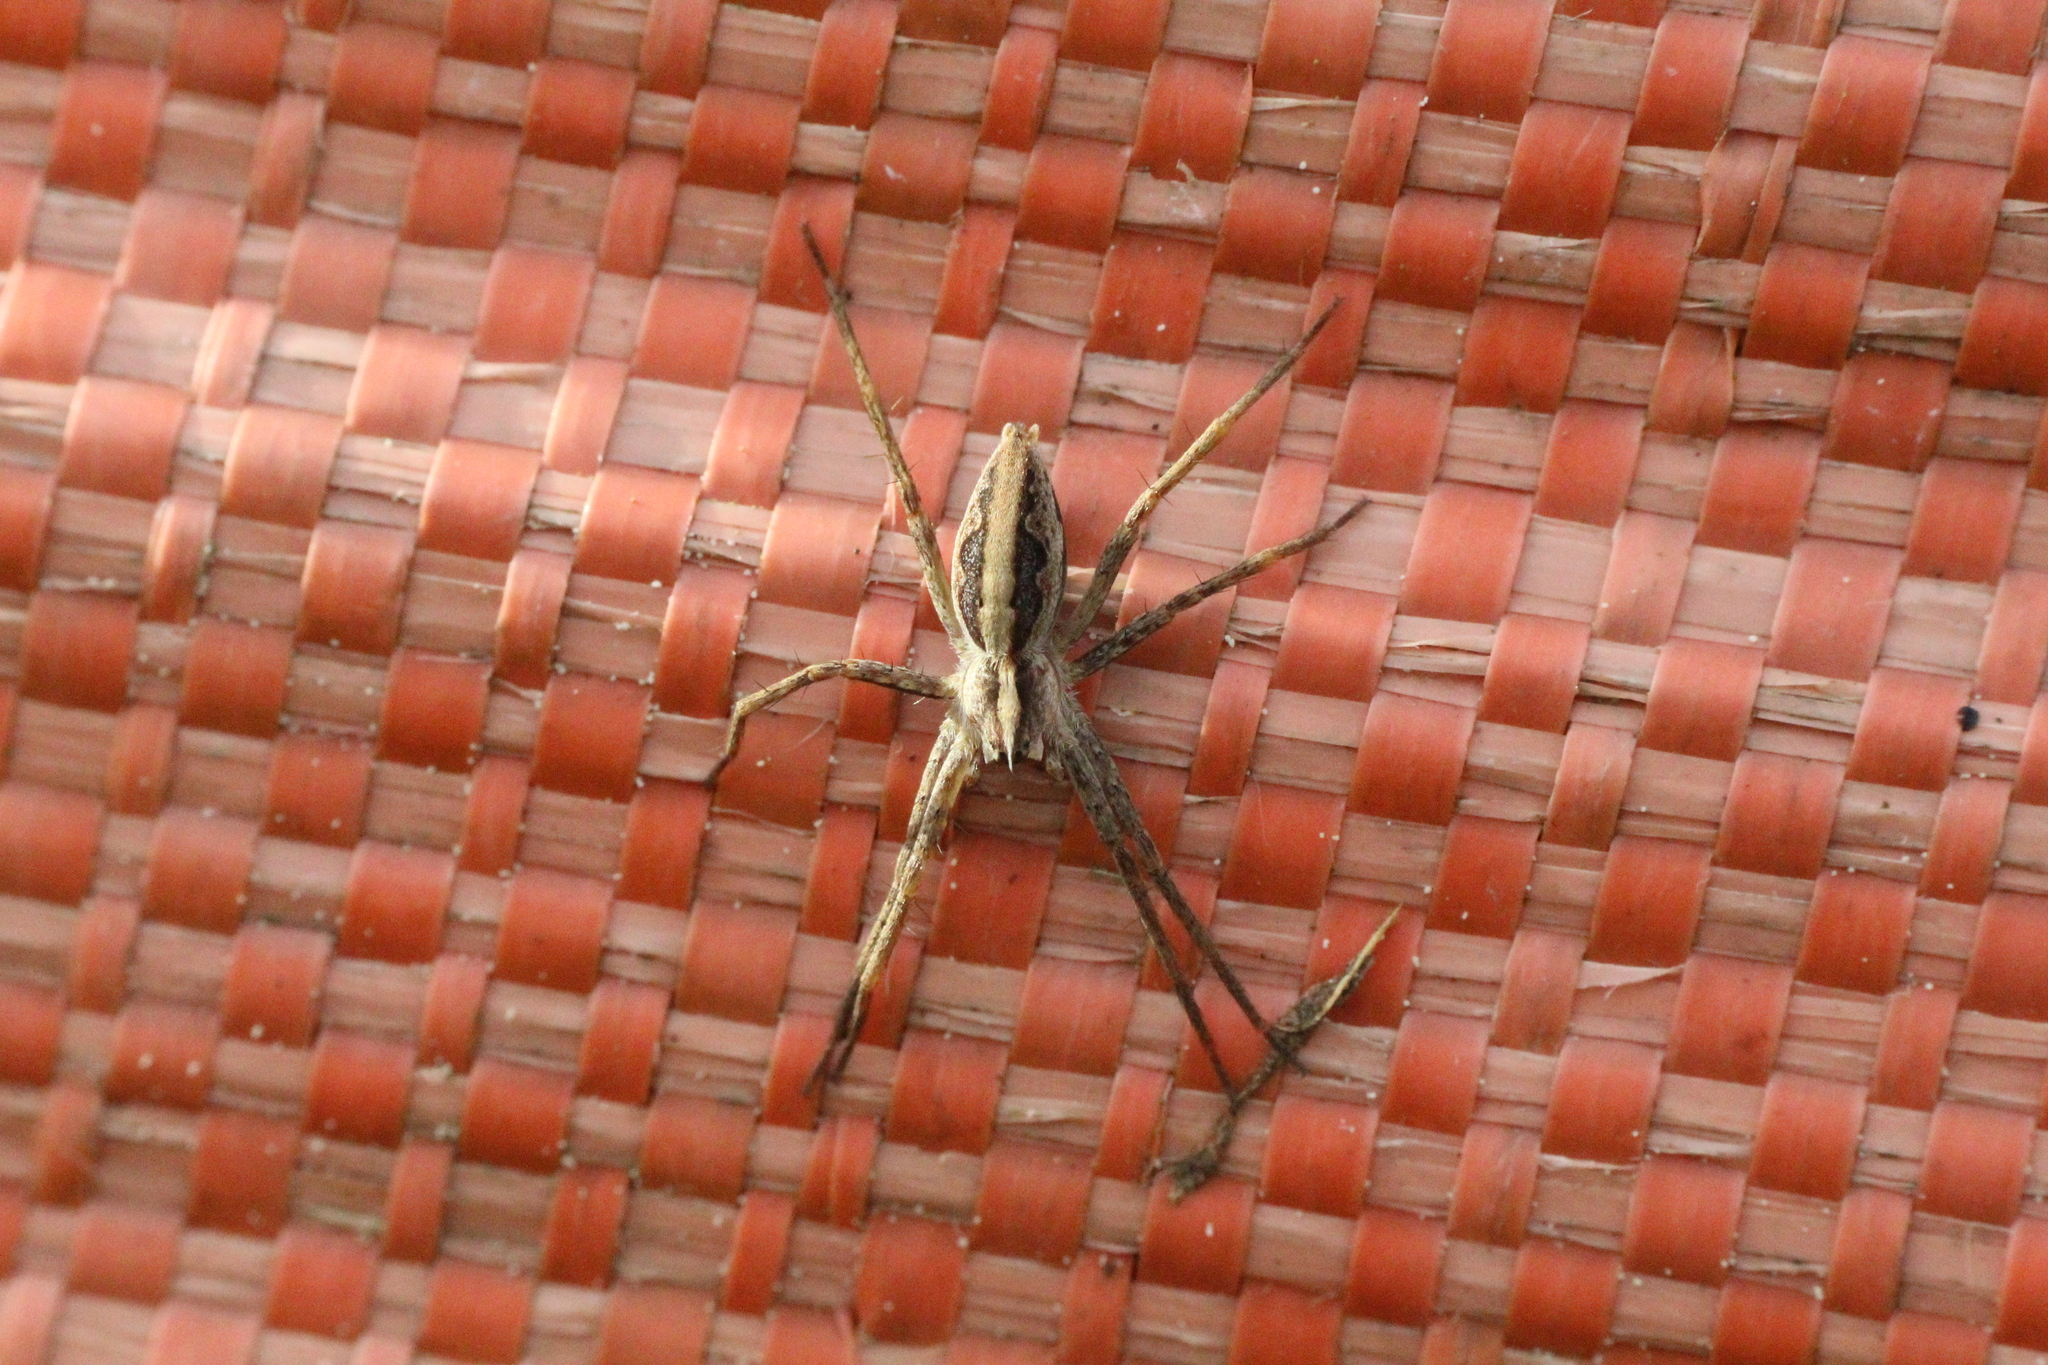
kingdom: Animalia
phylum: Arthropoda
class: Arachnida
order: Araneae
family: Pisauridae
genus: Pisaura
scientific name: Pisaura mirabilis
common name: Tent spider
